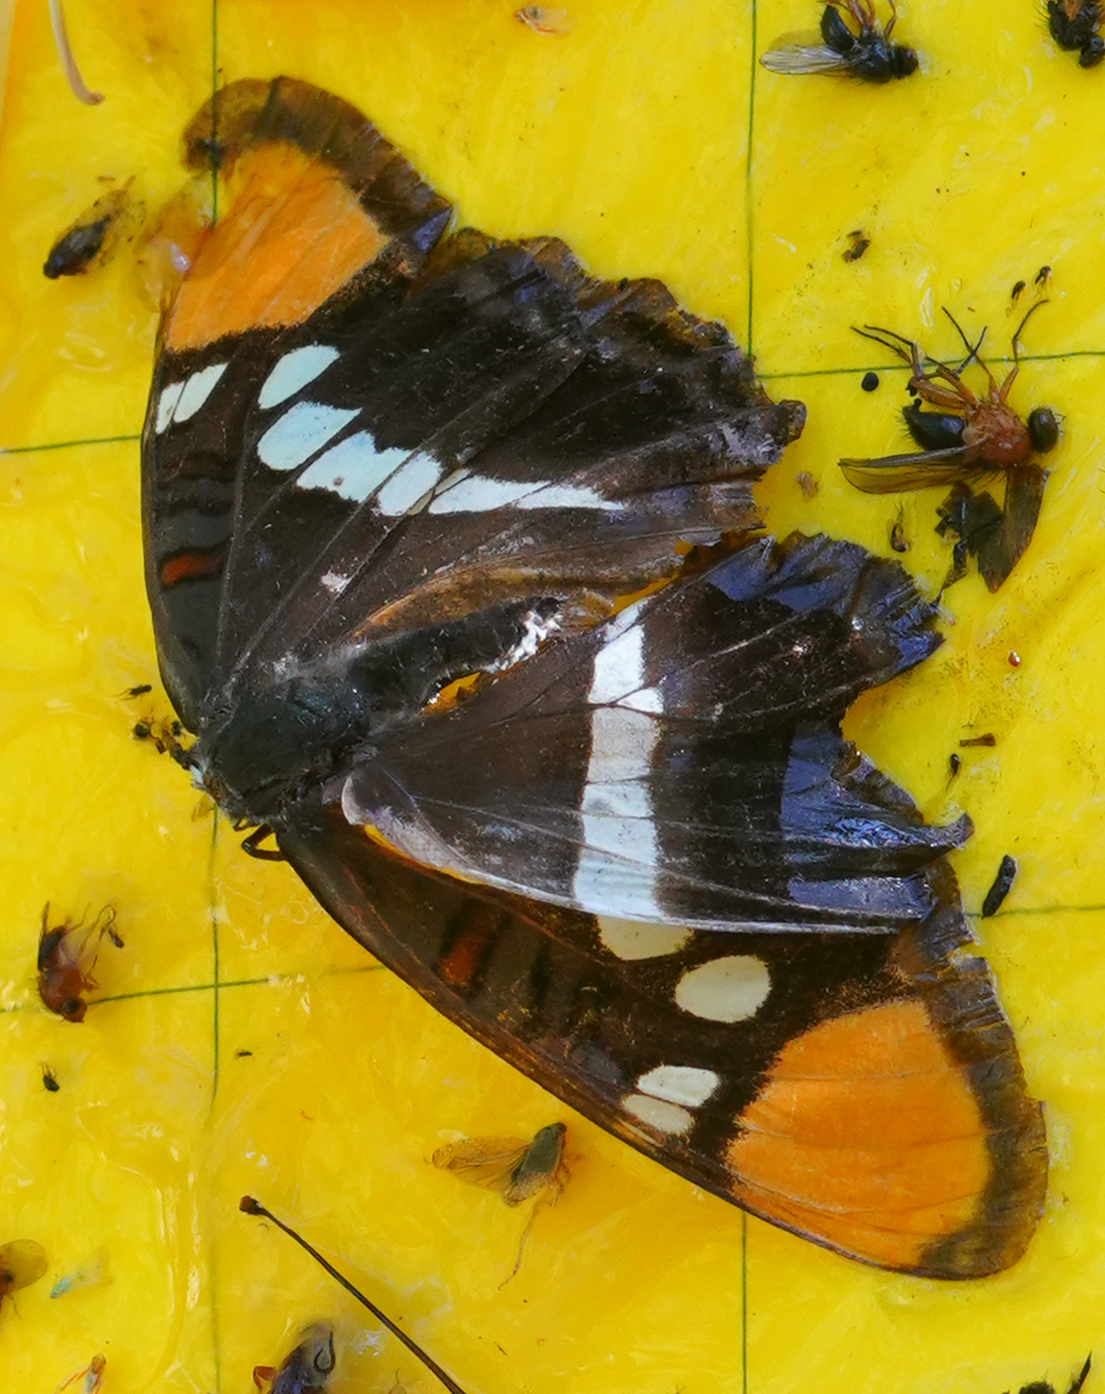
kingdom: Animalia
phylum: Arthropoda
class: Insecta
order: Lepidoptera
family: Nymphalidae
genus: Limenitis
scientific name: Limenitis bredowii
